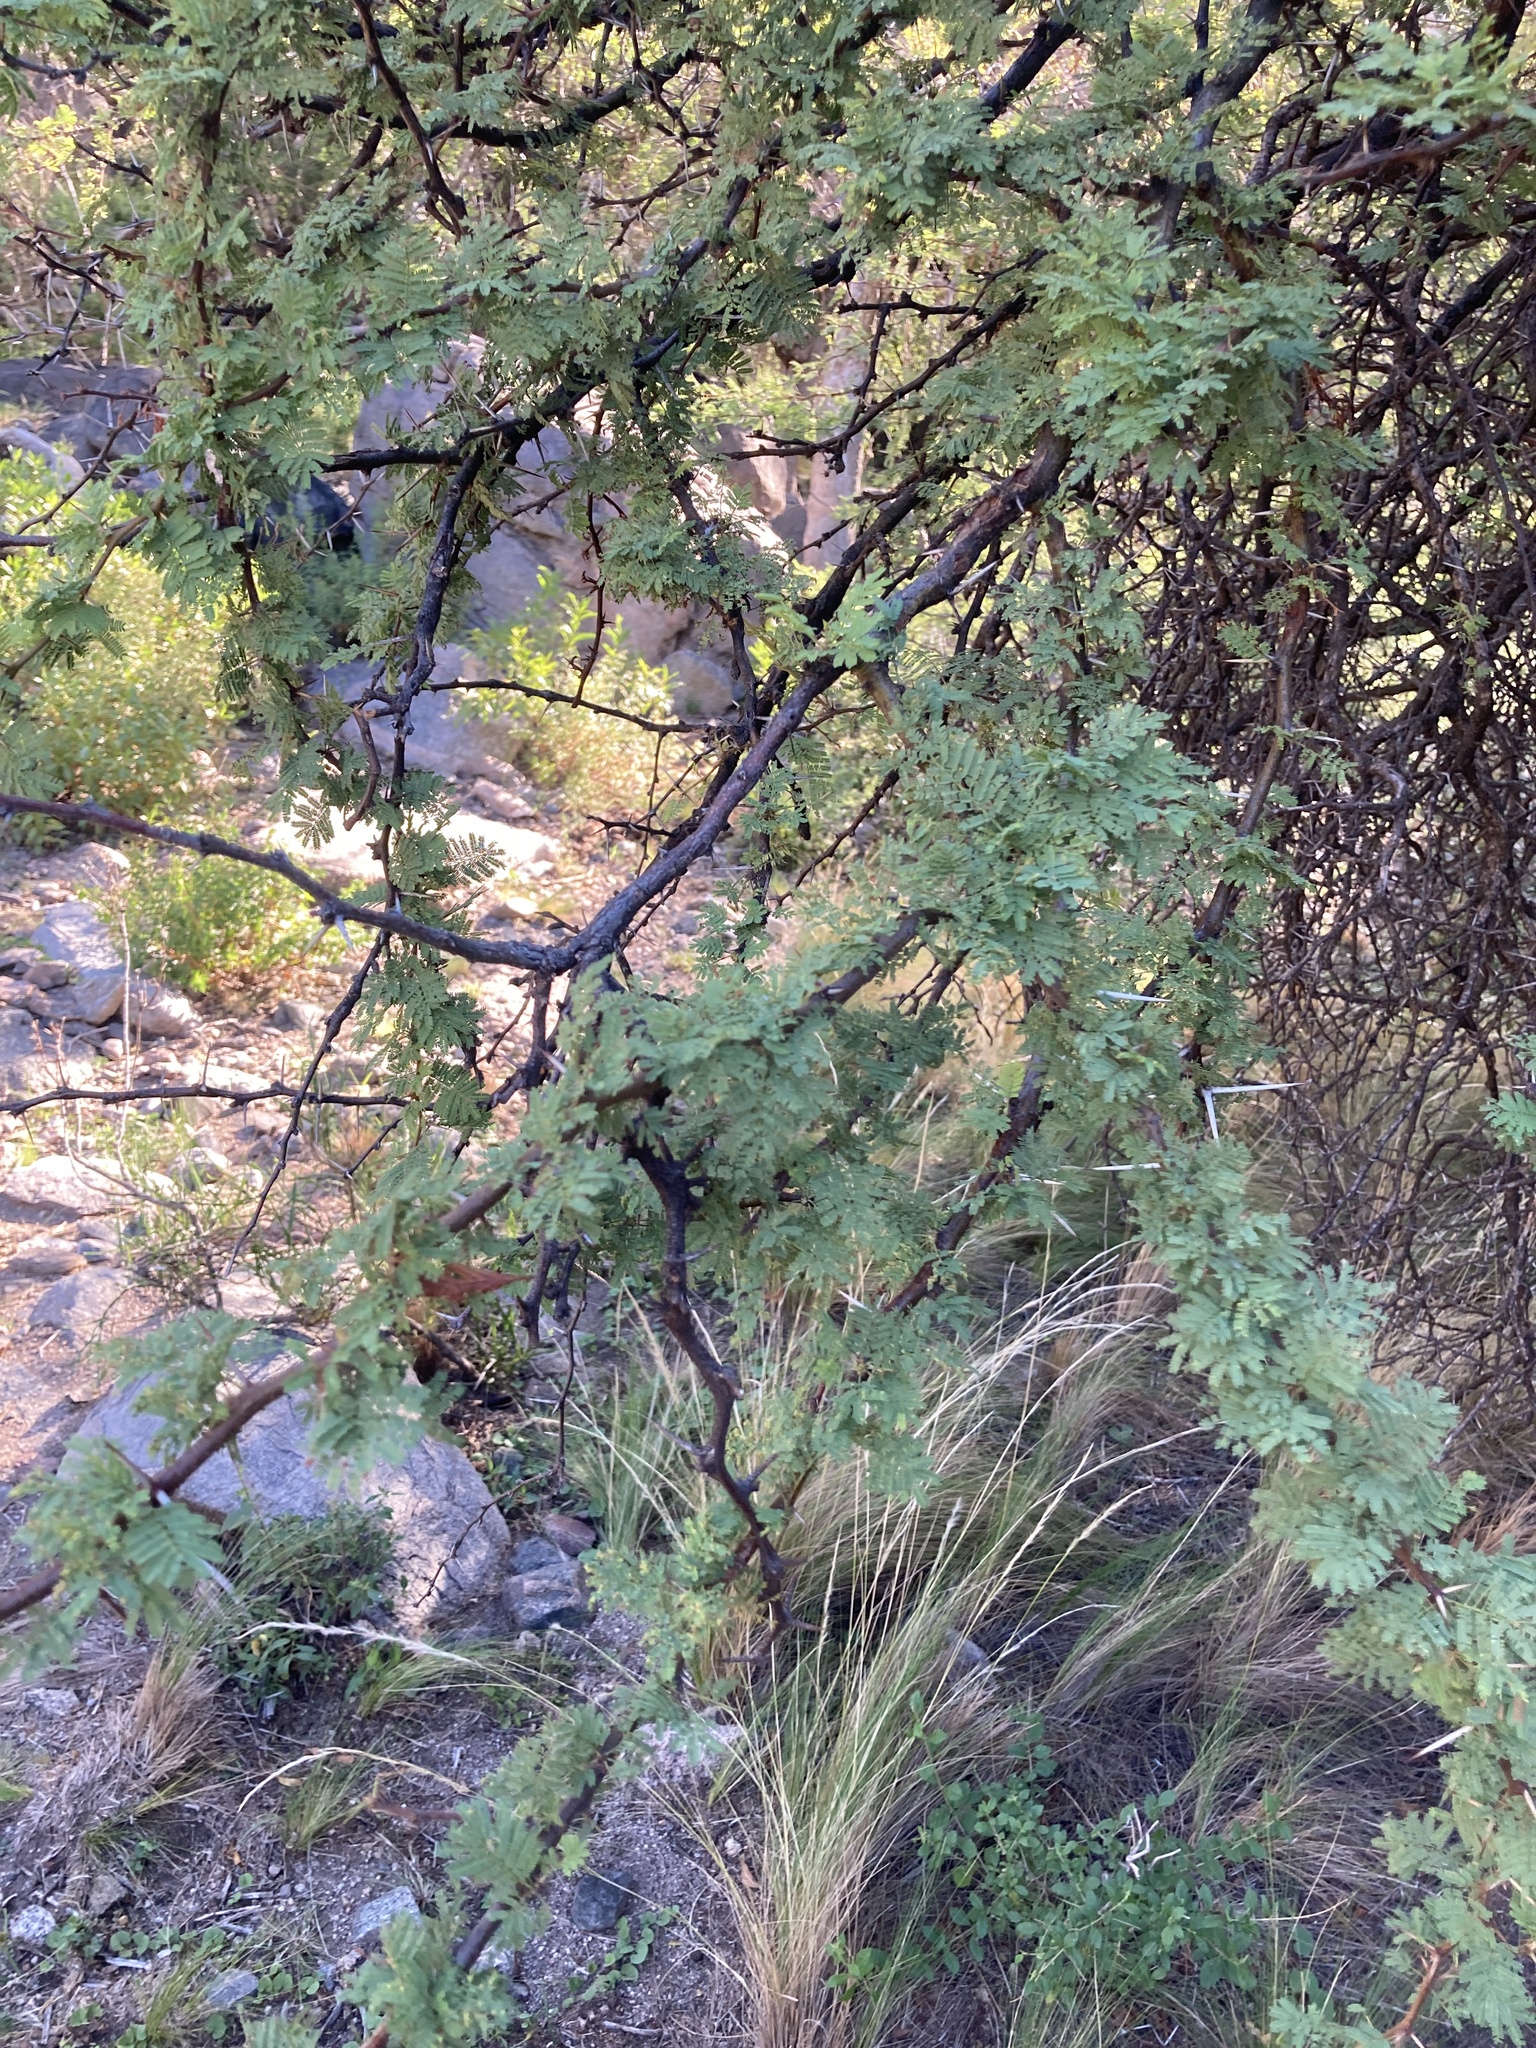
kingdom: Plantae
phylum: Tracheophyta
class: Magnoliopsida
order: Fabales
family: Fabaceae
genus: Vachellia
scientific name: Vachellia caven
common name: Roman cassie
